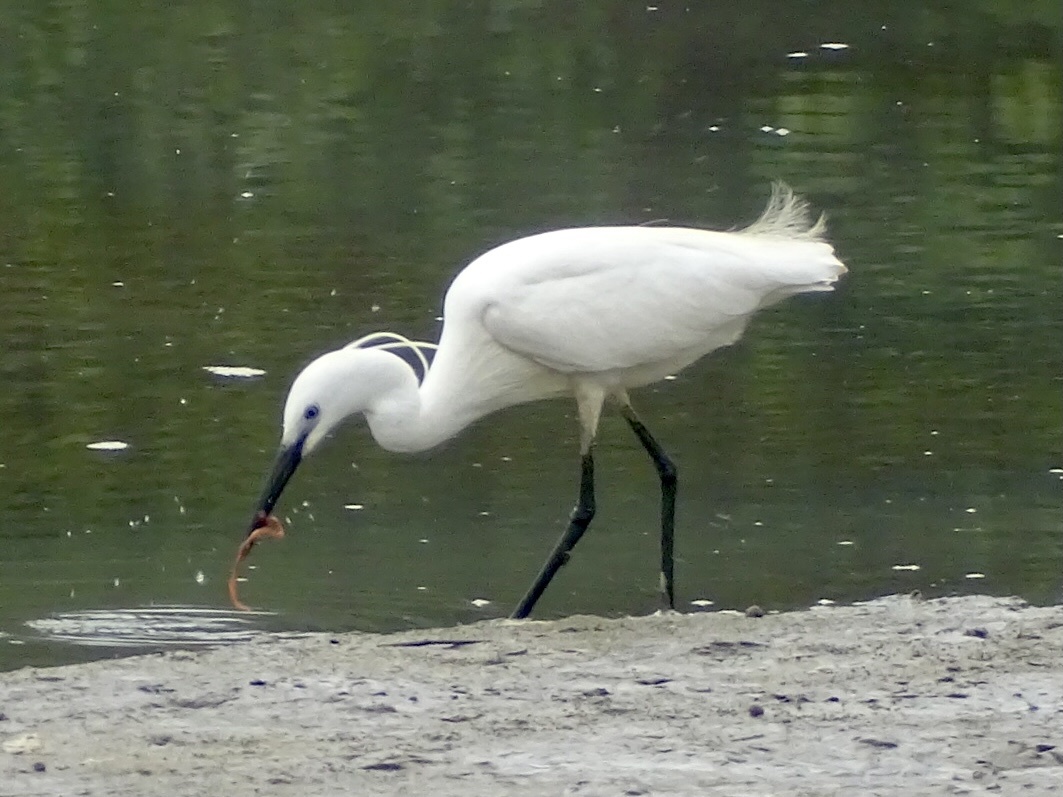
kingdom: Animalia
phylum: Chordata
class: Aves
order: Pelecaniformes
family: Ardeidae
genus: Egretta
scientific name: Egretta garzetta
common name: Little egret
